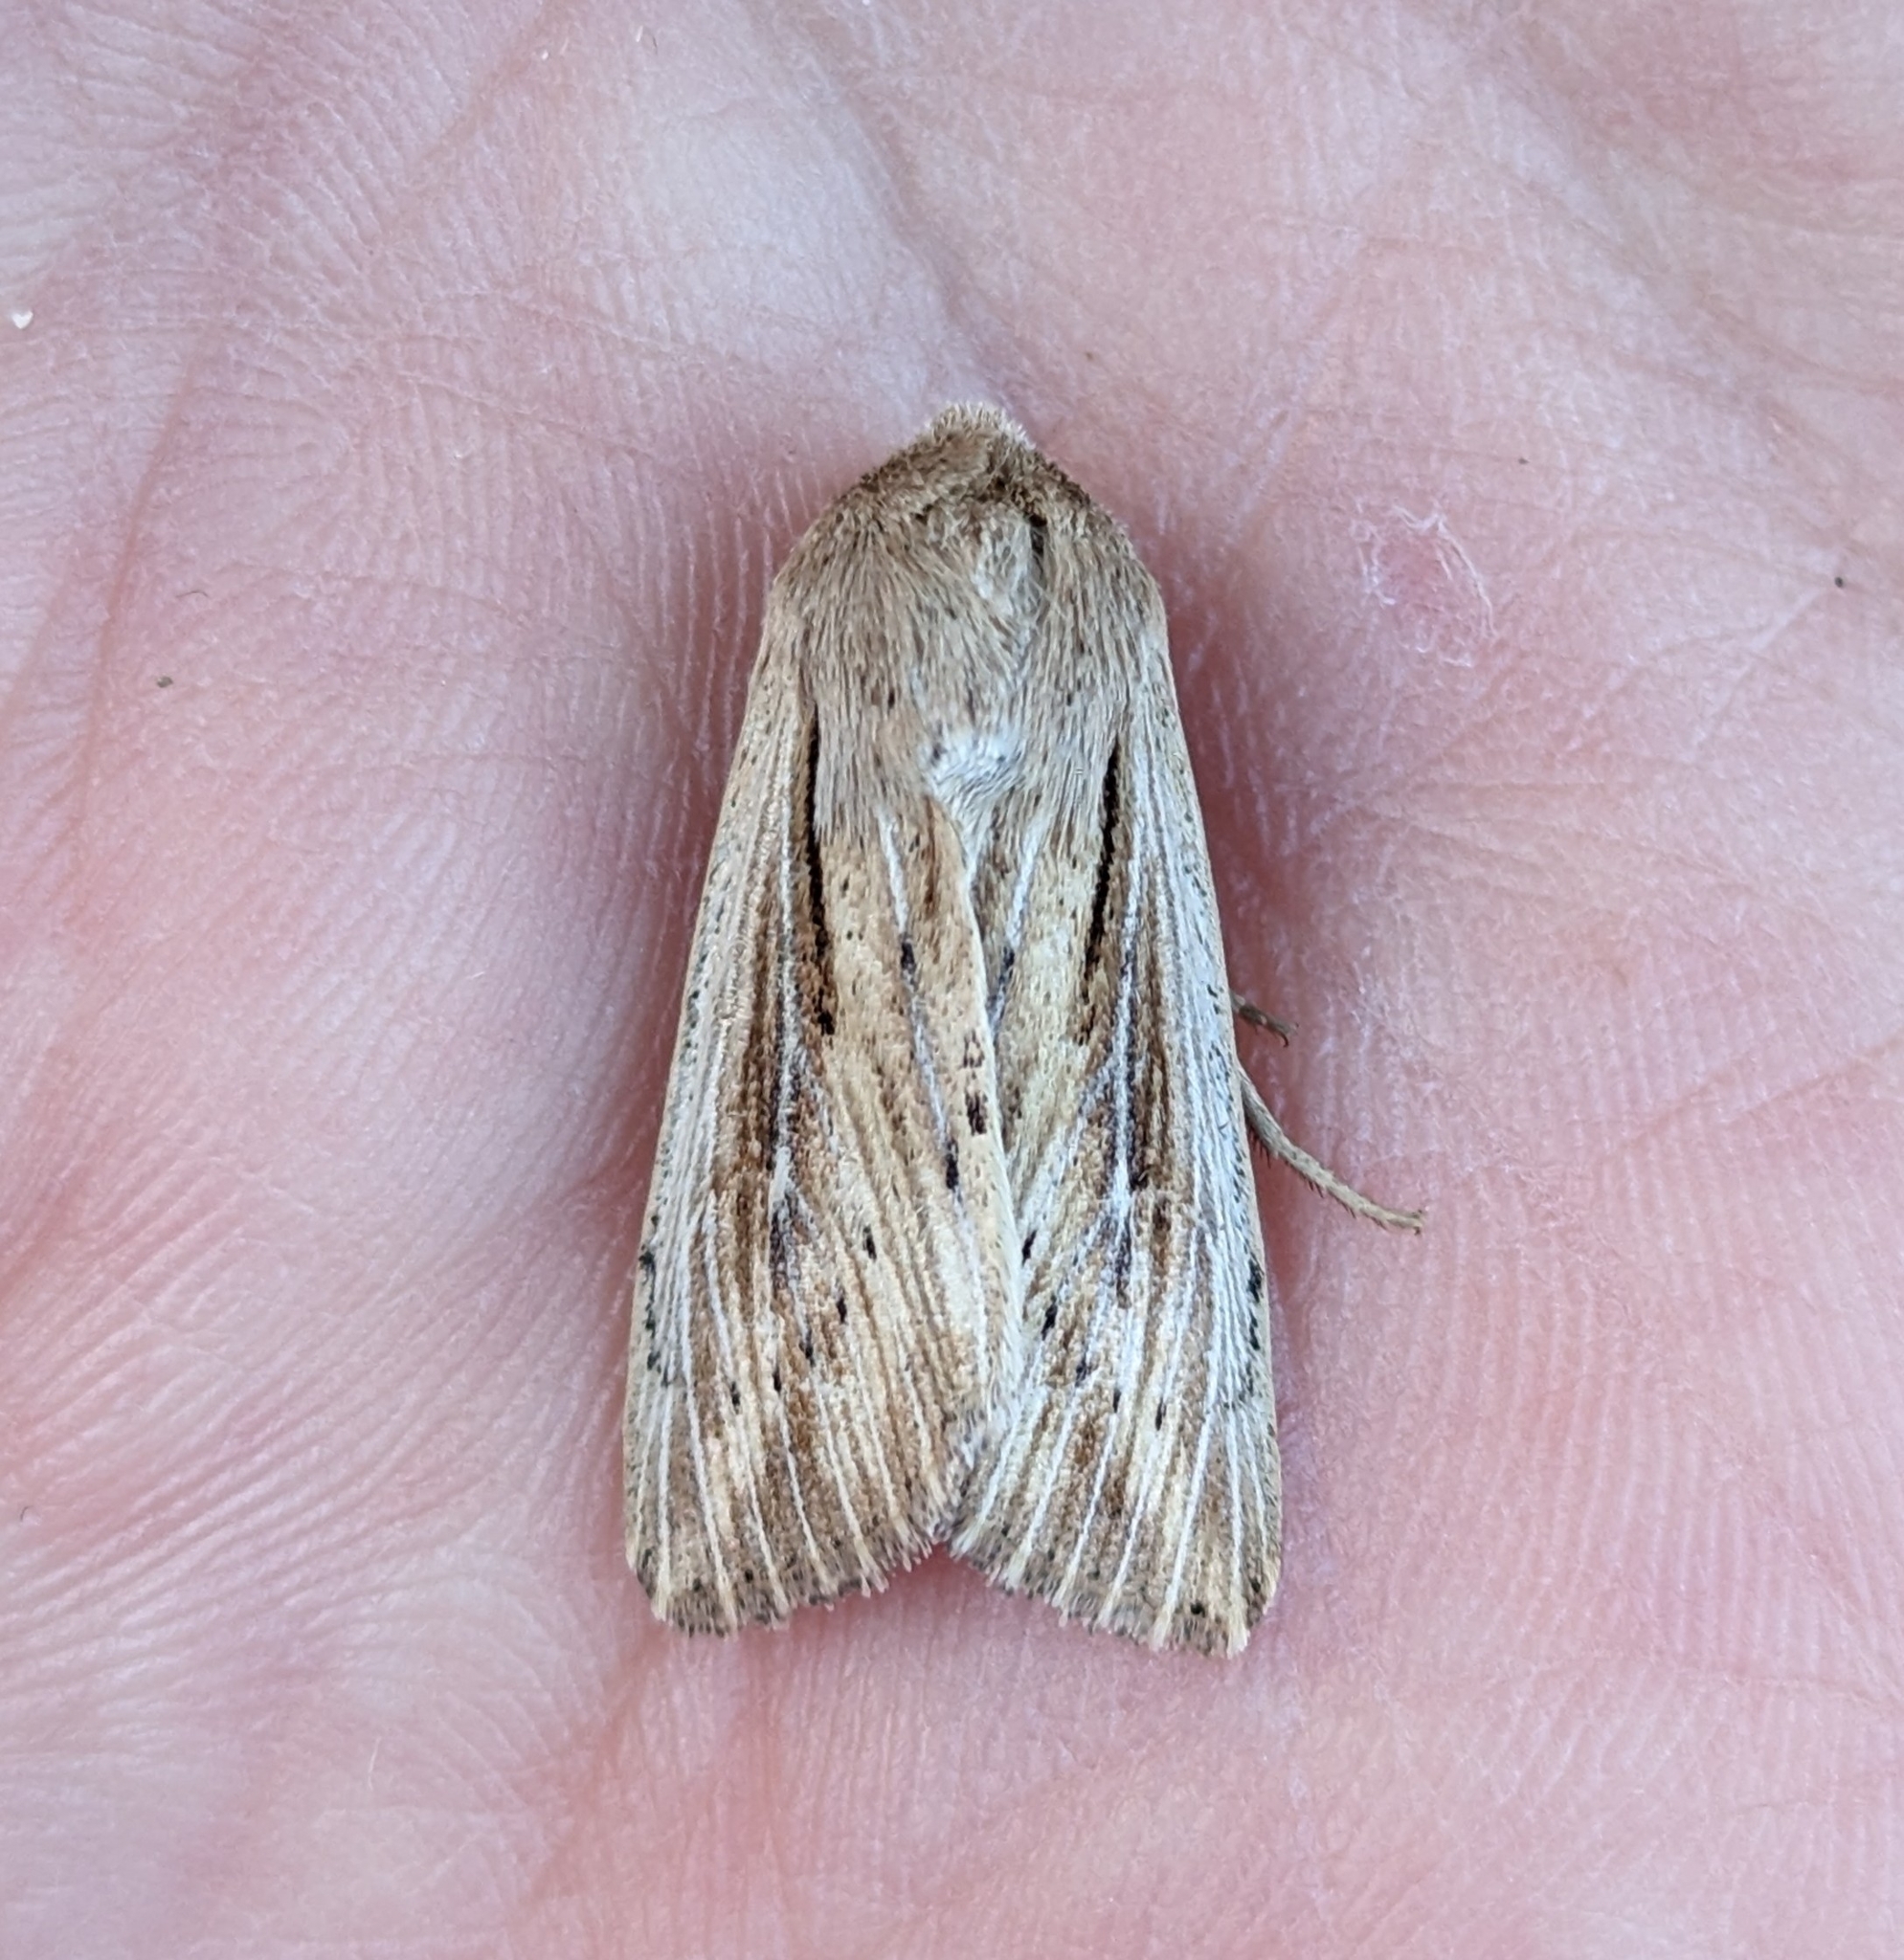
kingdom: Animalia
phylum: Arthropoda
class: Insecta
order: Lepidoptera
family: Noctuidae
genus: Leucania
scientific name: Leucania insueta
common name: Heterodox wainscot moth
